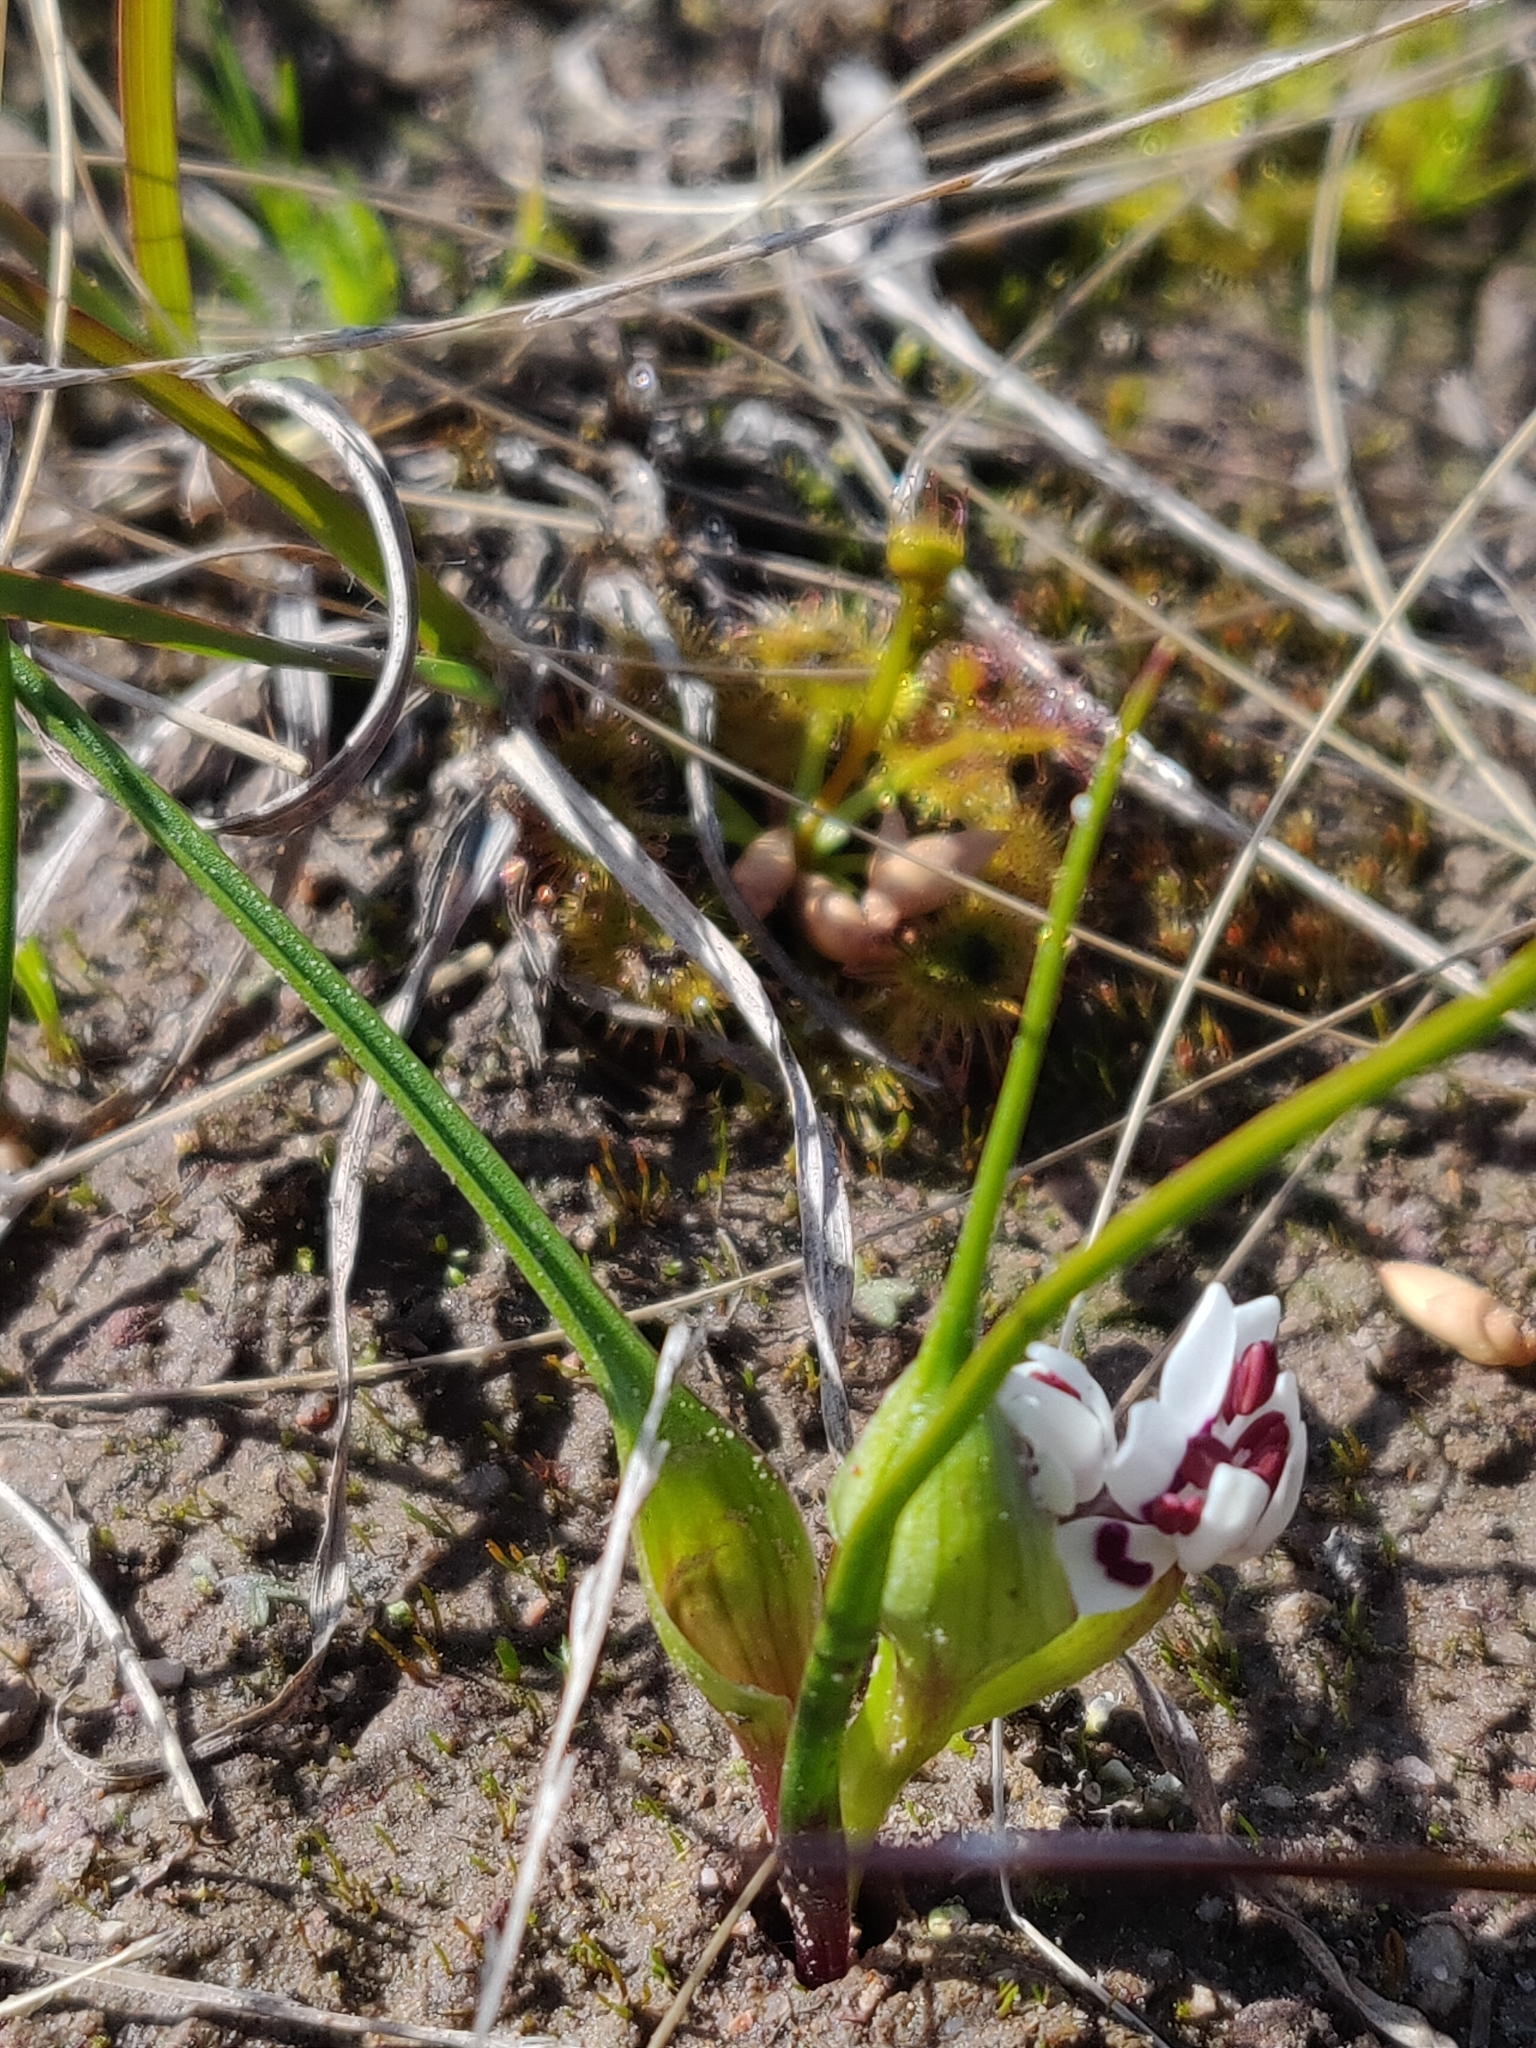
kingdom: Plantae
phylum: Tracheophyta
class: Liliopsida
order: Liliales
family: Colchicaceae
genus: Wurmbea
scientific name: Wurmbea dioica
